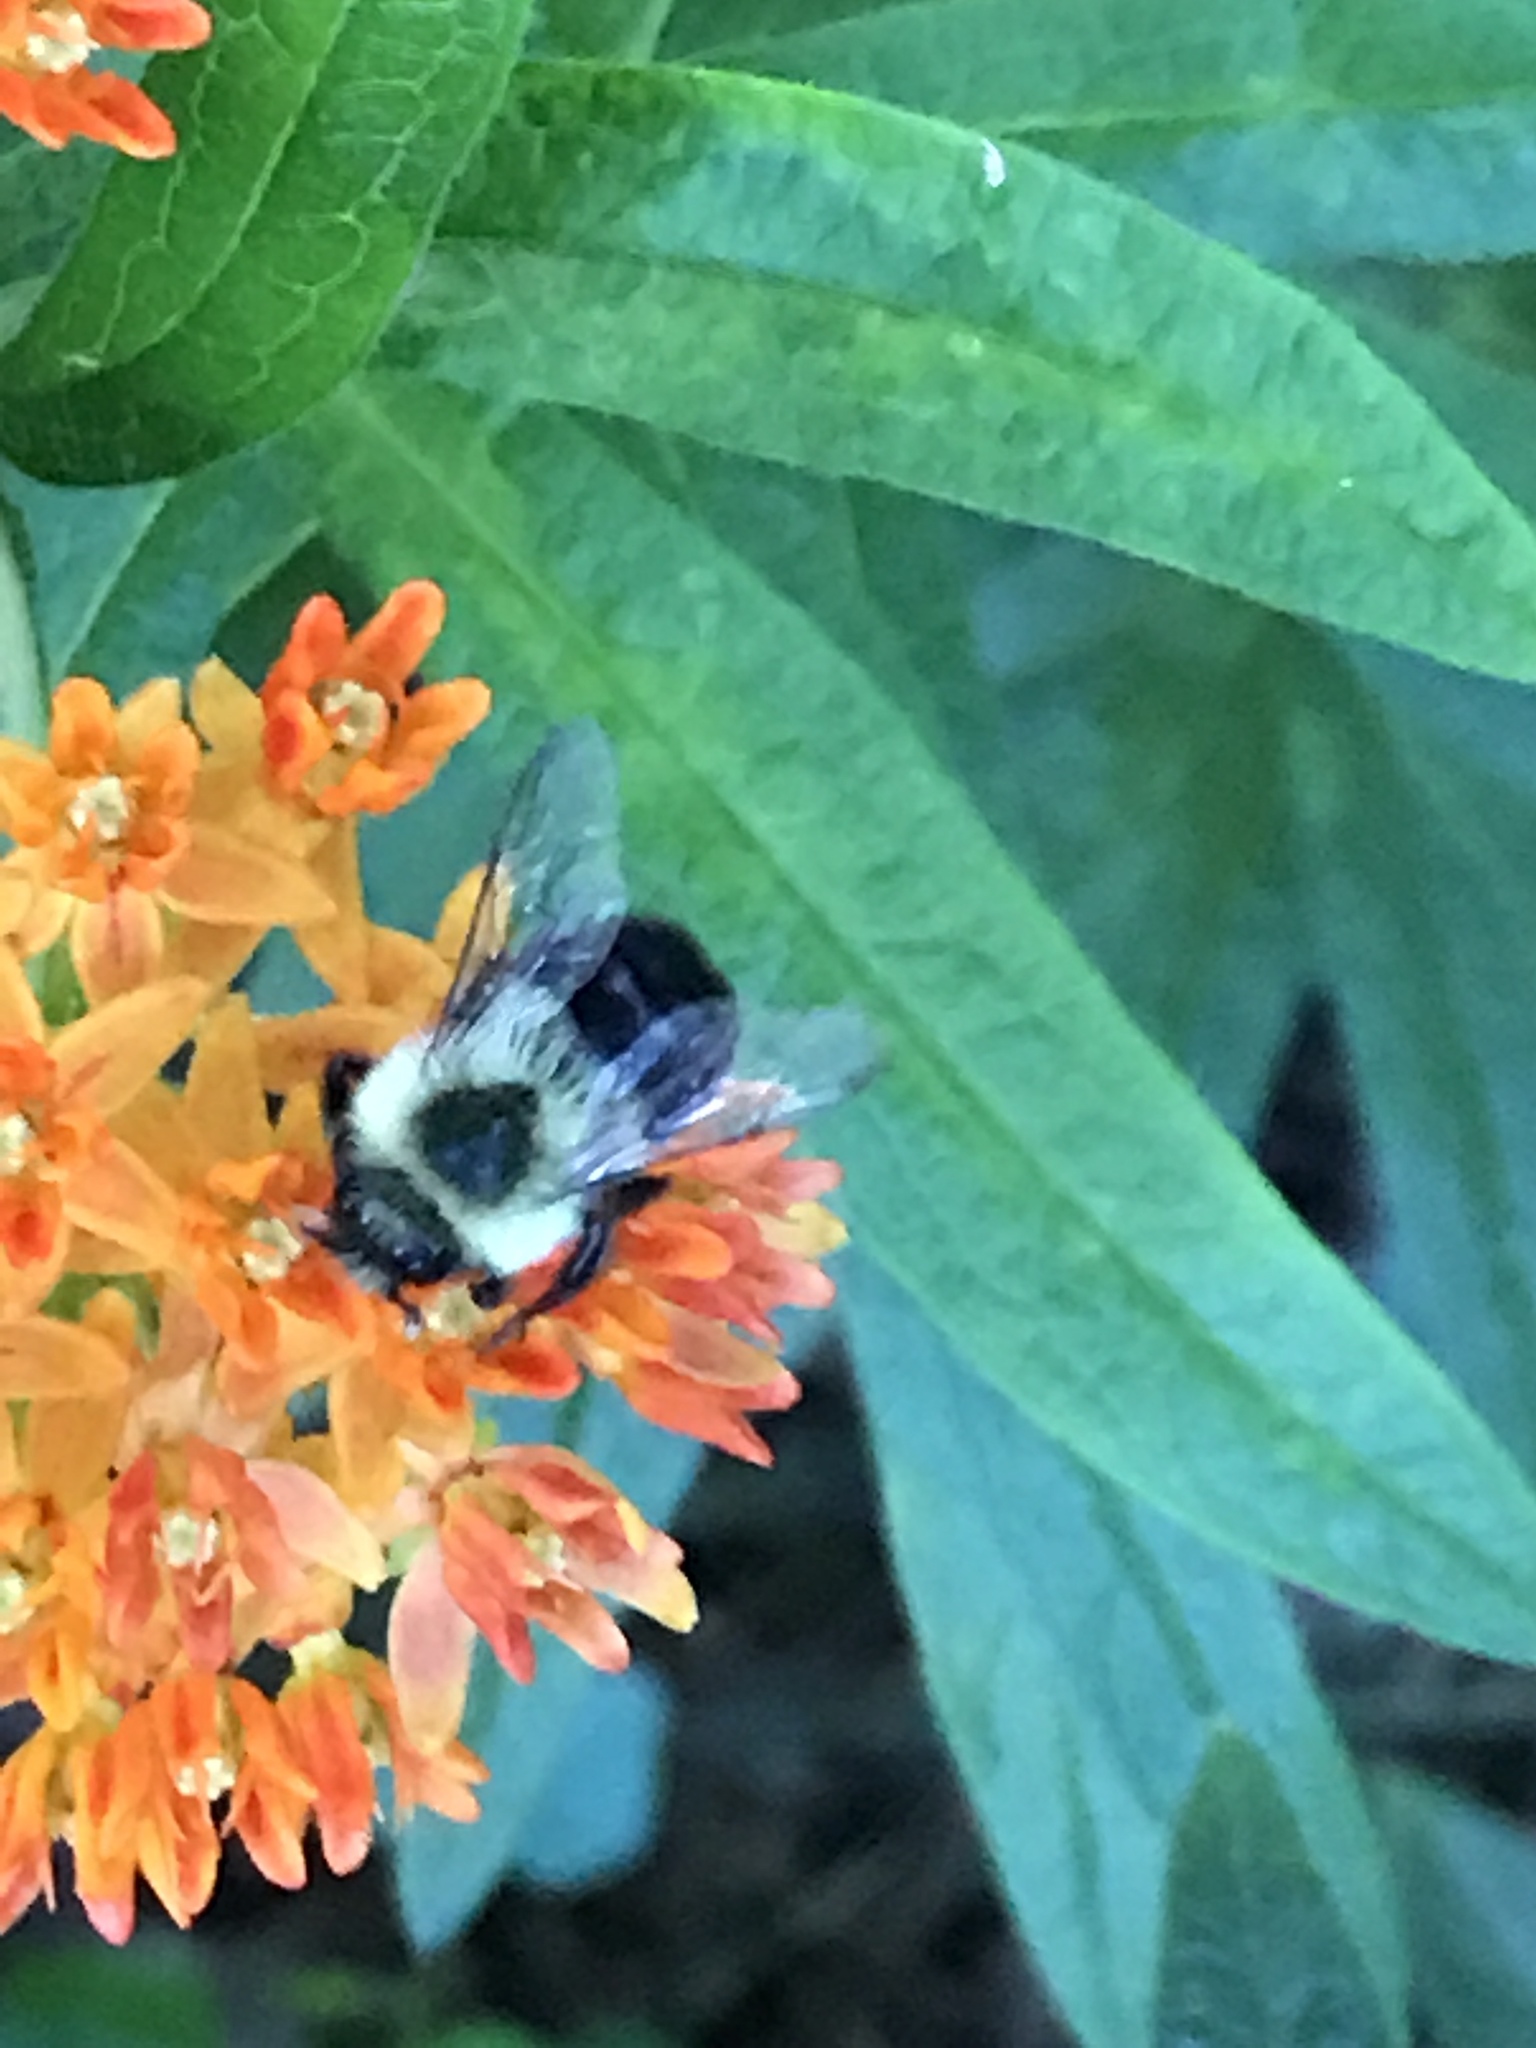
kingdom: Animalia
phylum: Arthropoda
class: Insecta
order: Hymenoptera
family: Apidae
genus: Bombus
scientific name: Bombus impatiens
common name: Common eastern bumble bee
